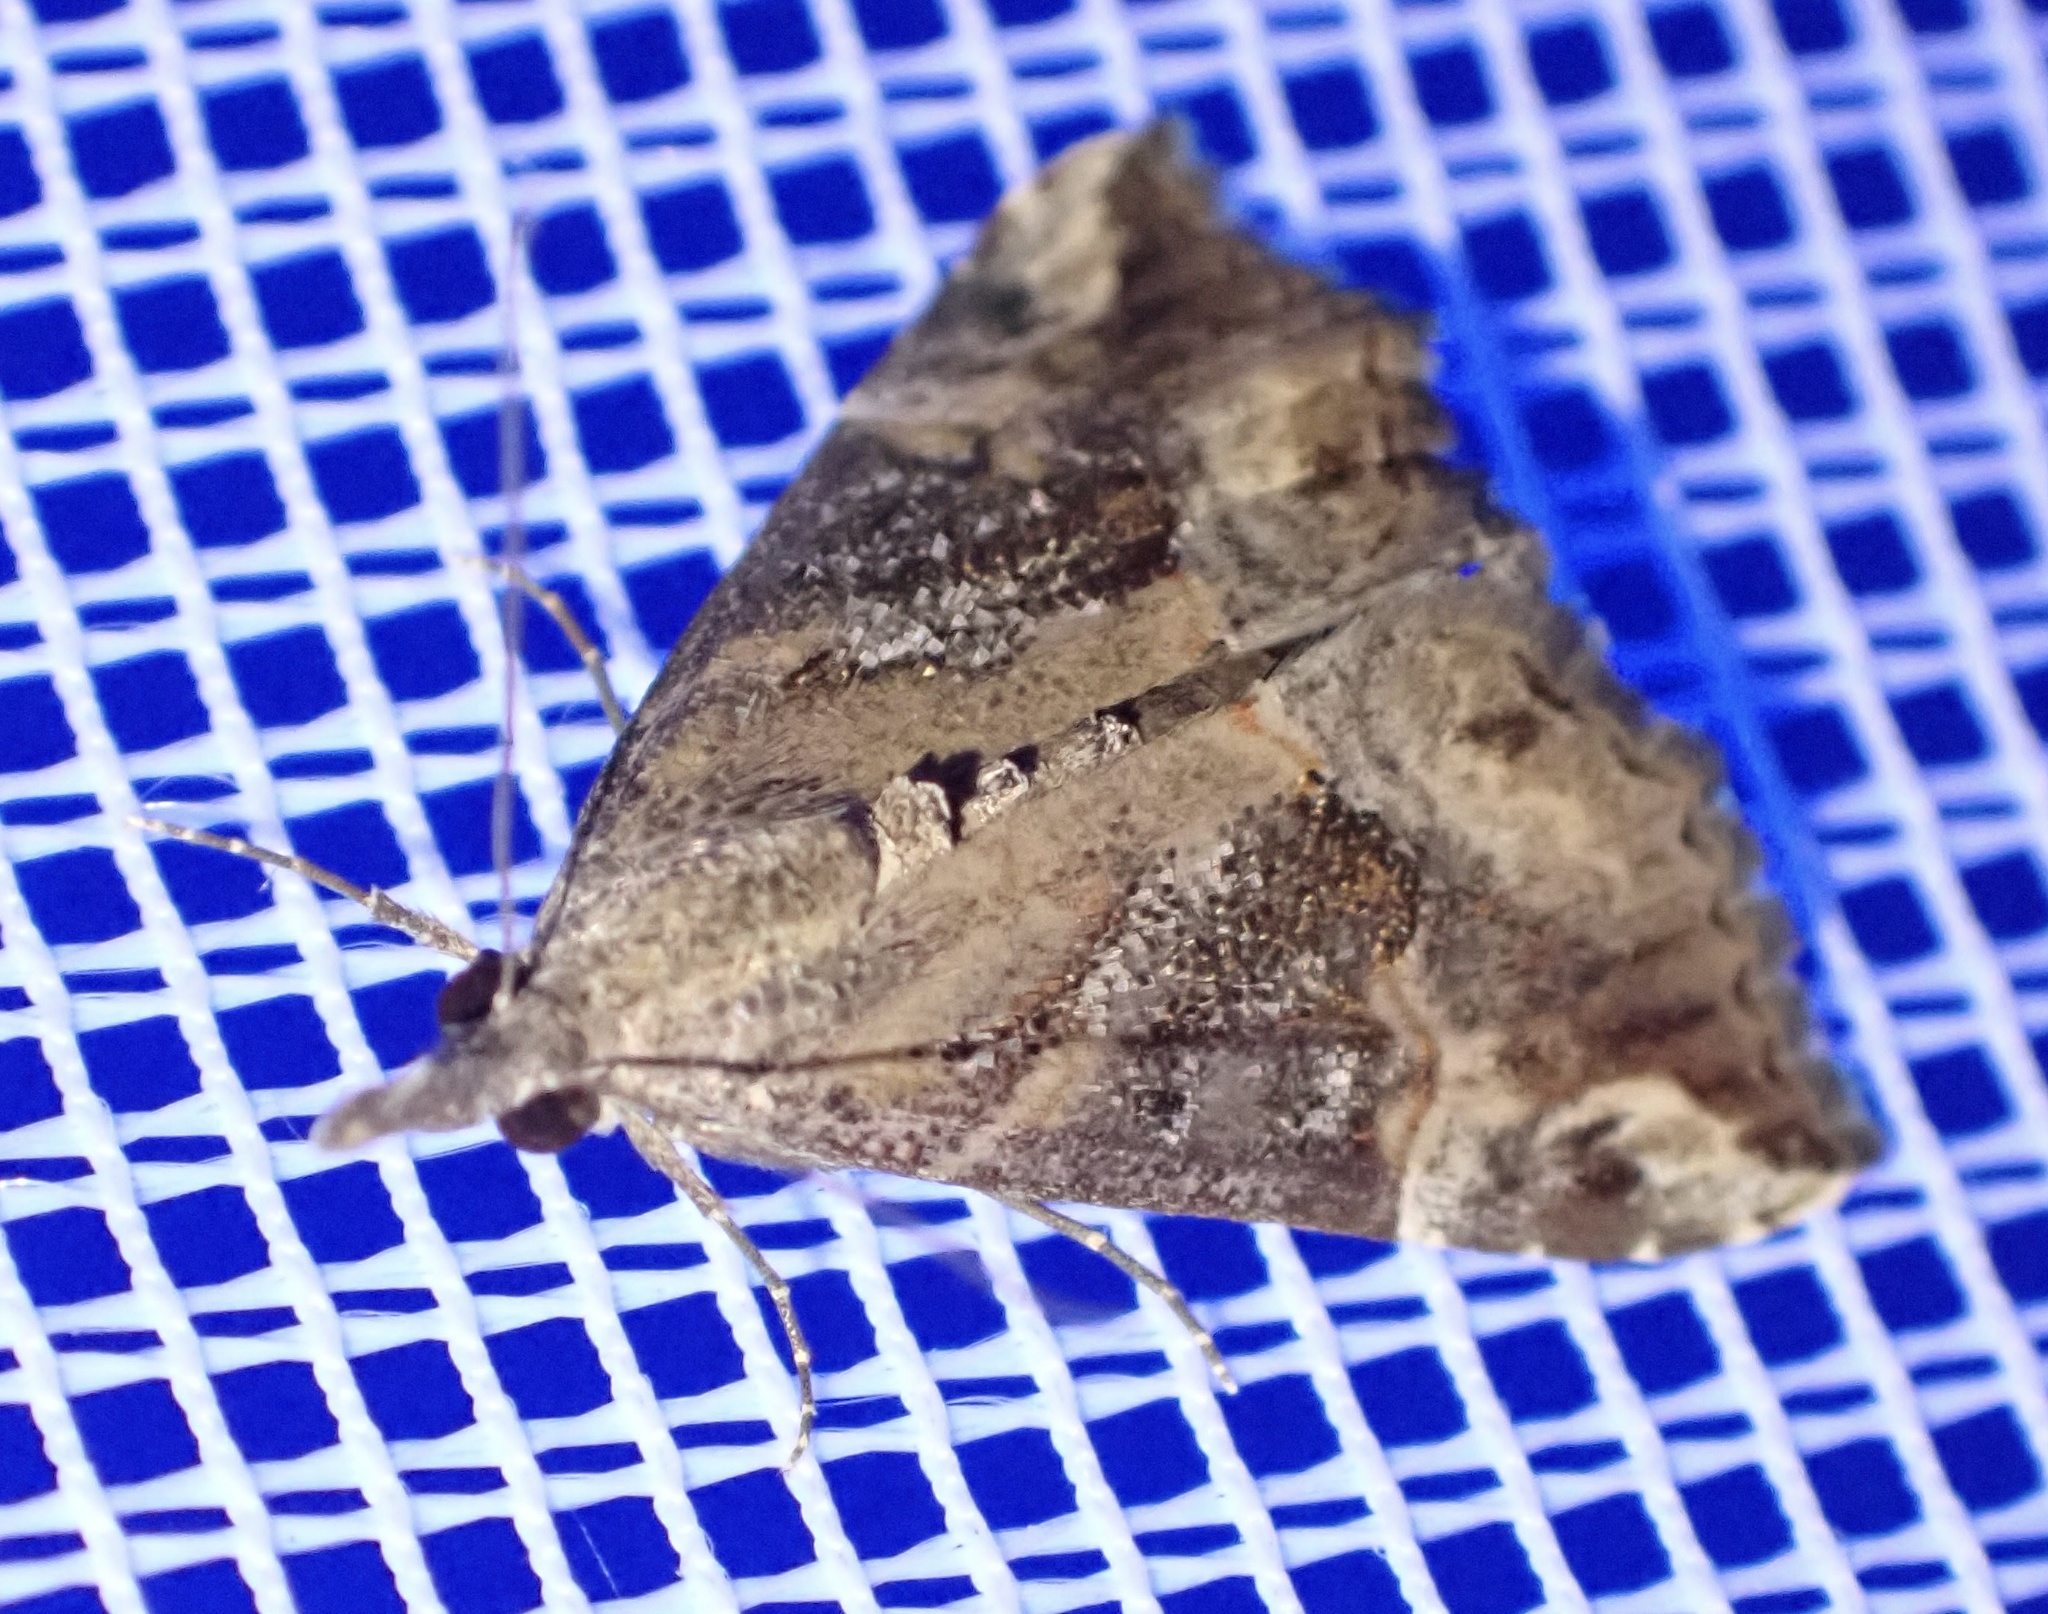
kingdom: Animalia
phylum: Arthropoda
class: Insecta
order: Lepidoptera
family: Erebidae
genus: Hypena
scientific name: Hypena commixtalis
